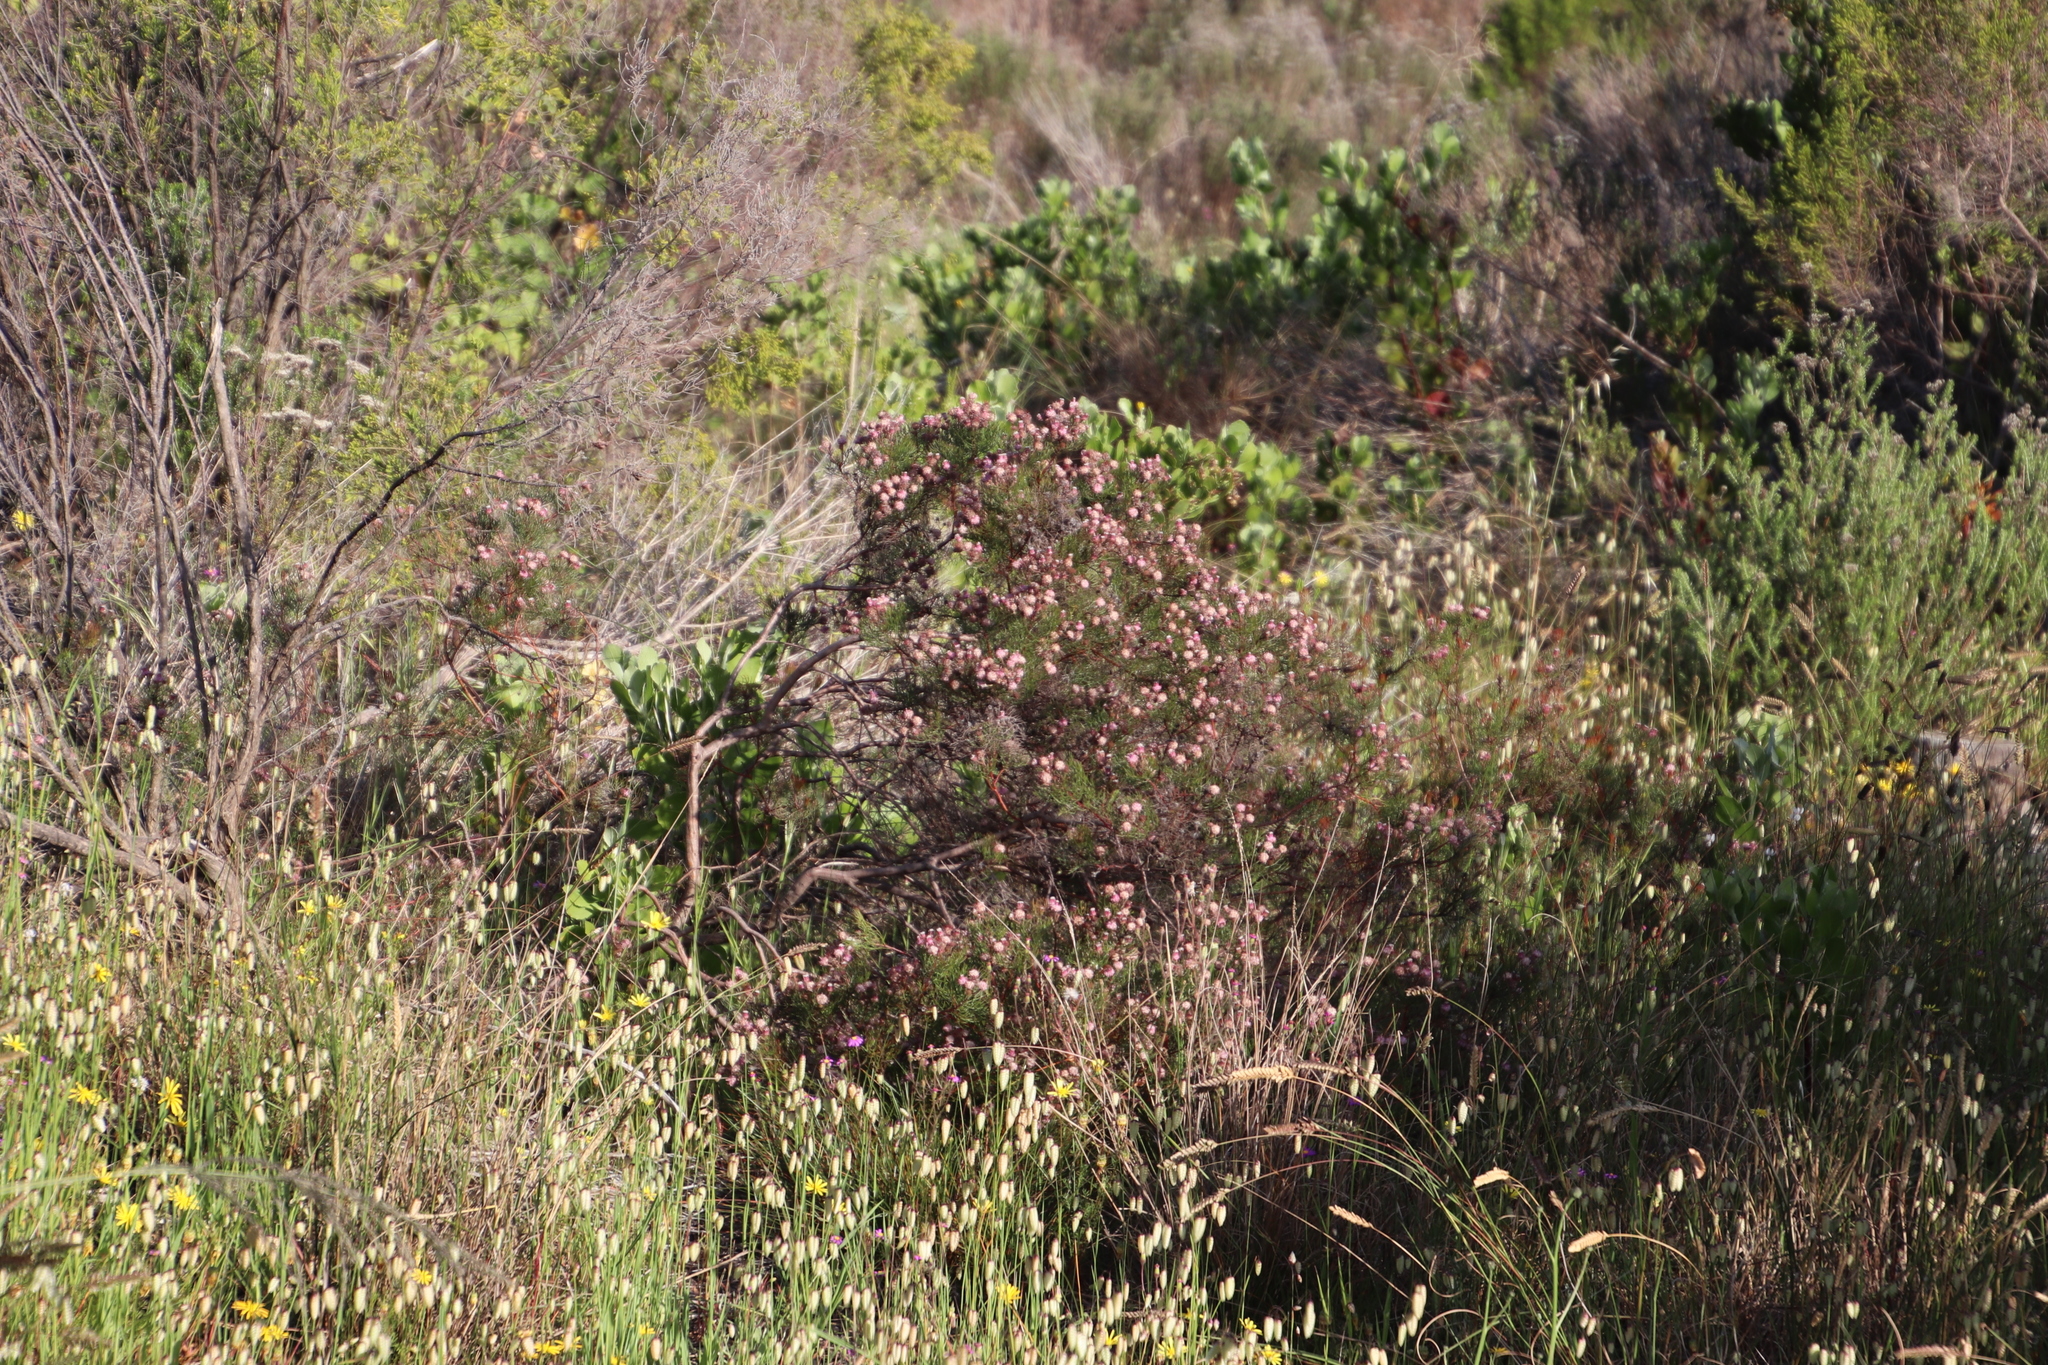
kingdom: Plantae
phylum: Tracheophyta
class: Magnoliopsida
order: Proteales
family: Proteaceae
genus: Serruria
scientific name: Serruria fasciflora
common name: Common pin spiderhead
